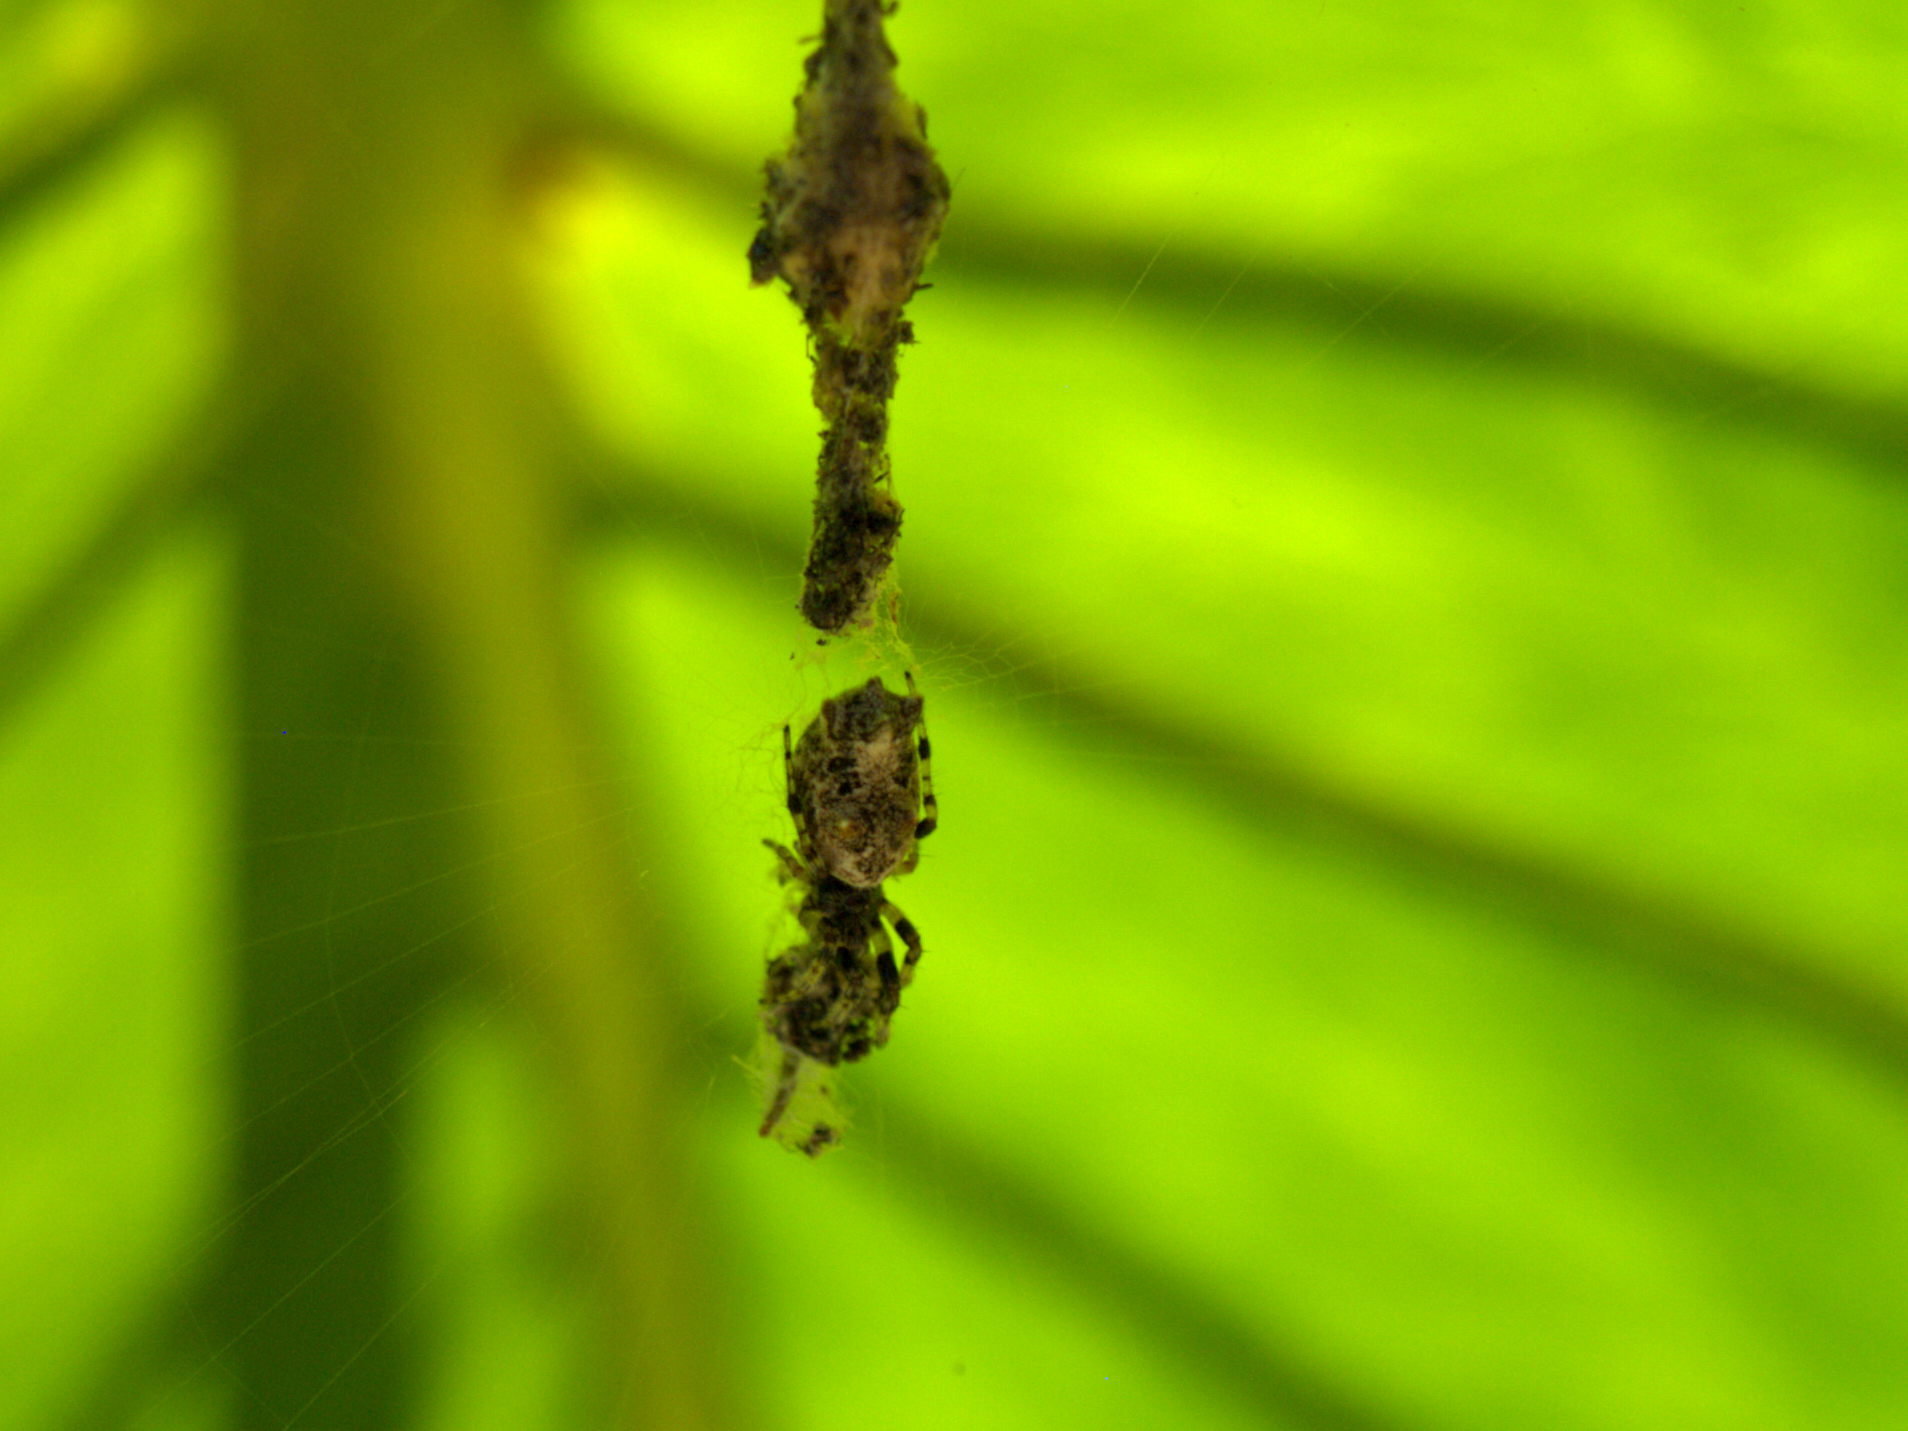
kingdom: Animalia
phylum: Arthropoda
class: Arachnida
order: Araneae
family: Araneidae
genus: Cyclosa
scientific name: Cyclosa
